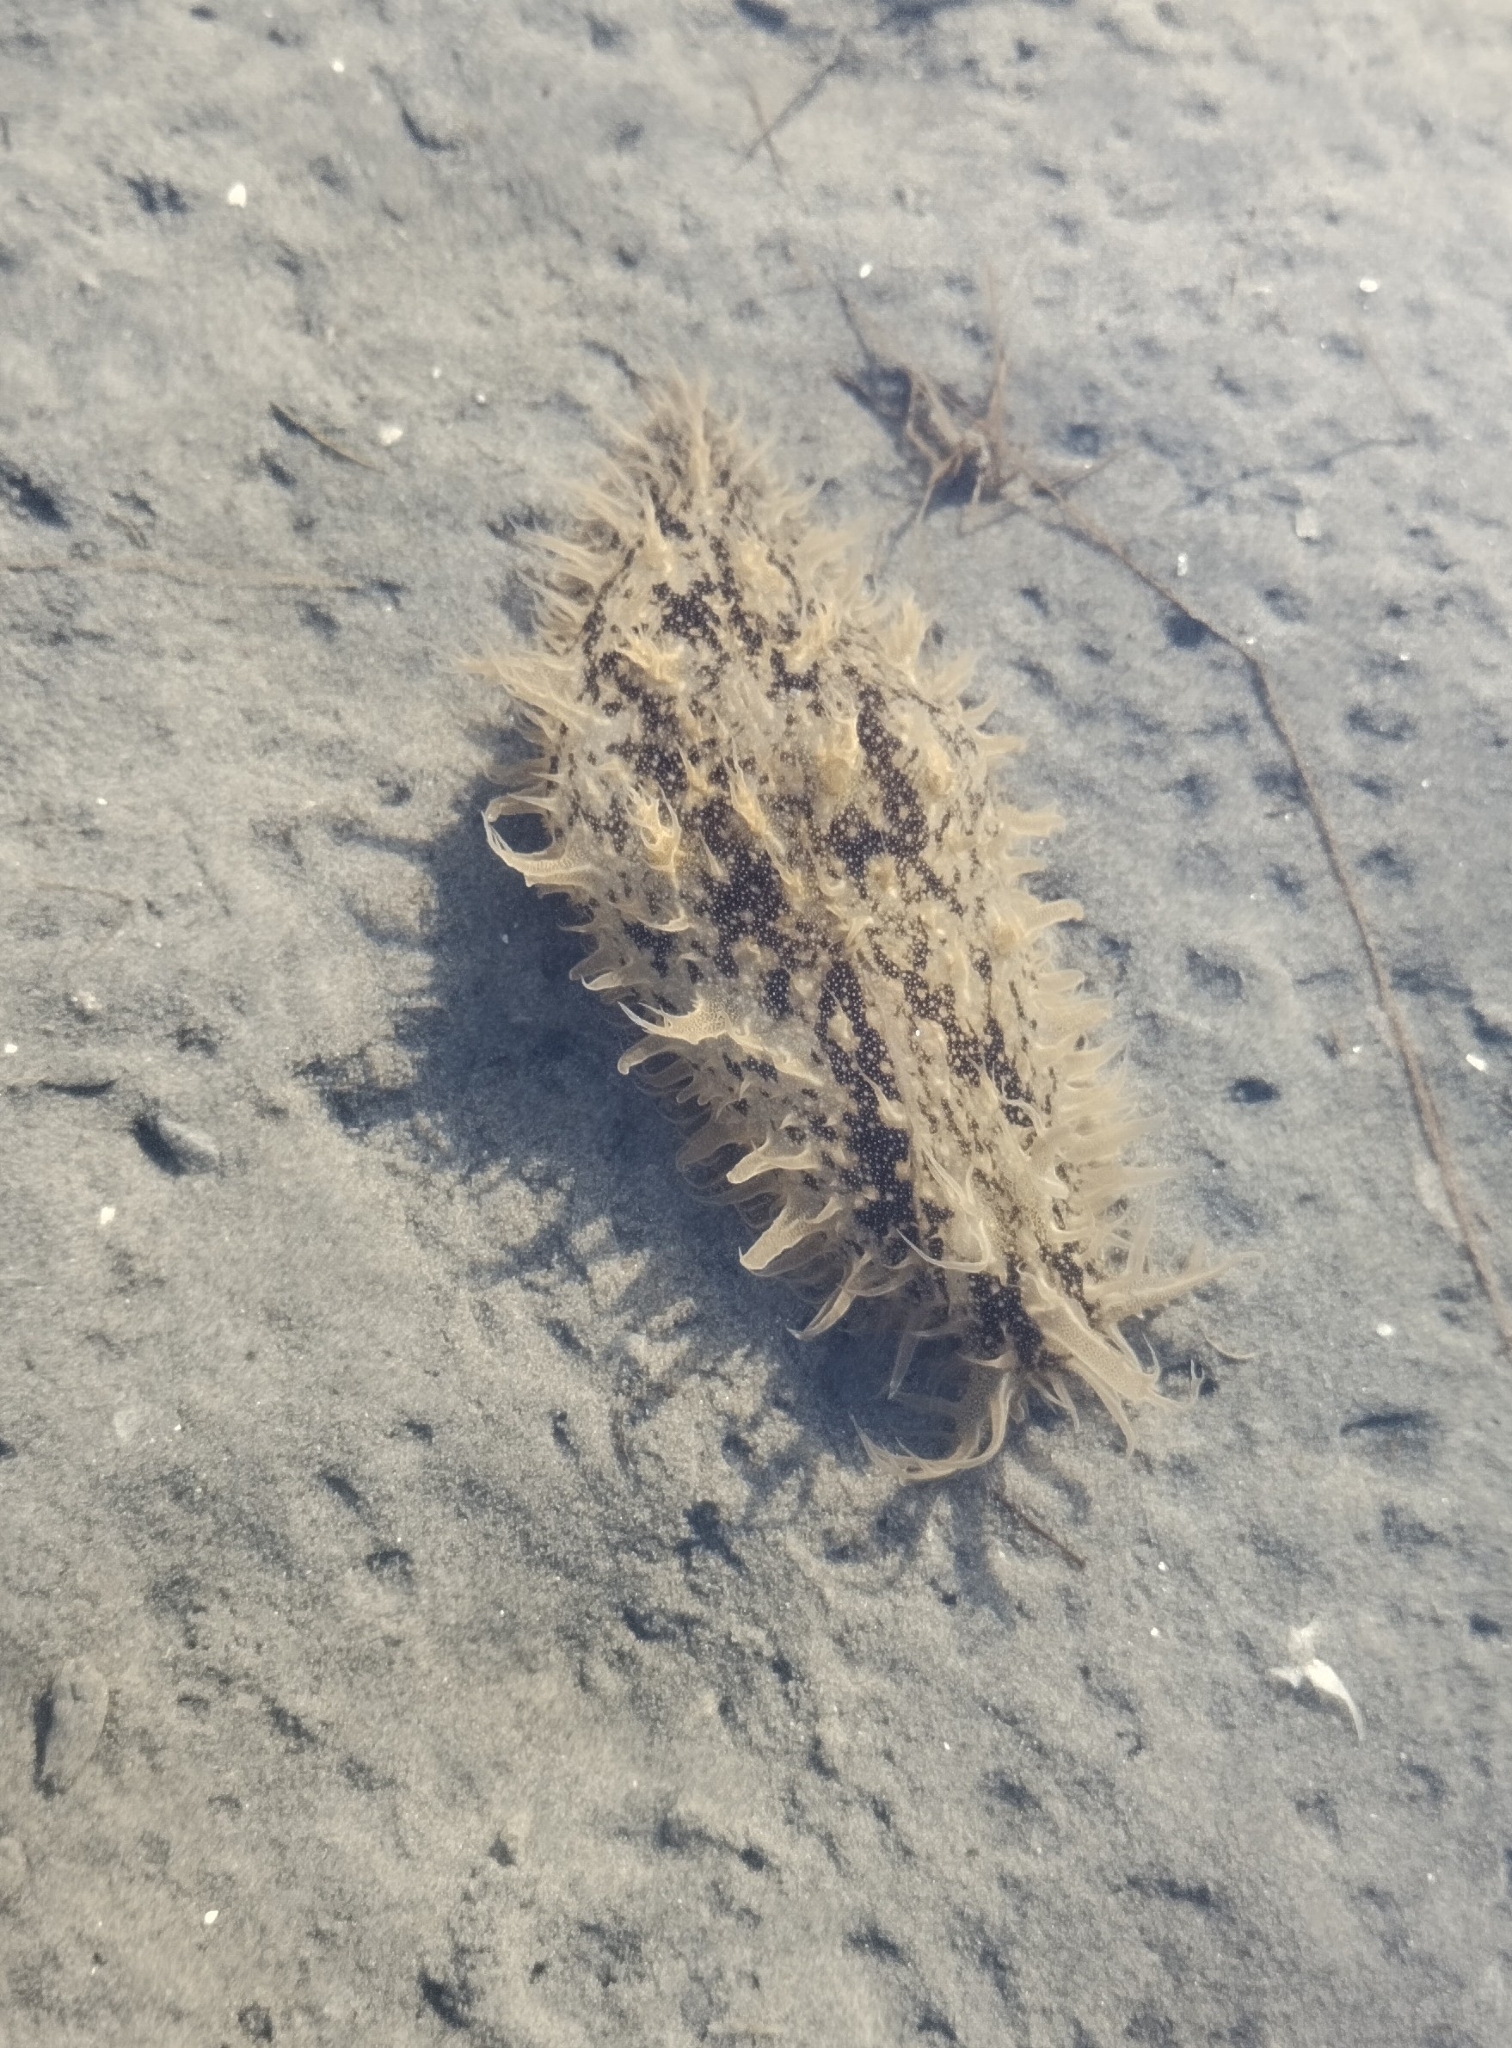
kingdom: Animalia
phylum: Mollusca
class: Gastropoda
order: Aplysiida
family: Aplysiidae
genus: Bursatella
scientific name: Bursatella leachii
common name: Shaggy sea hare
